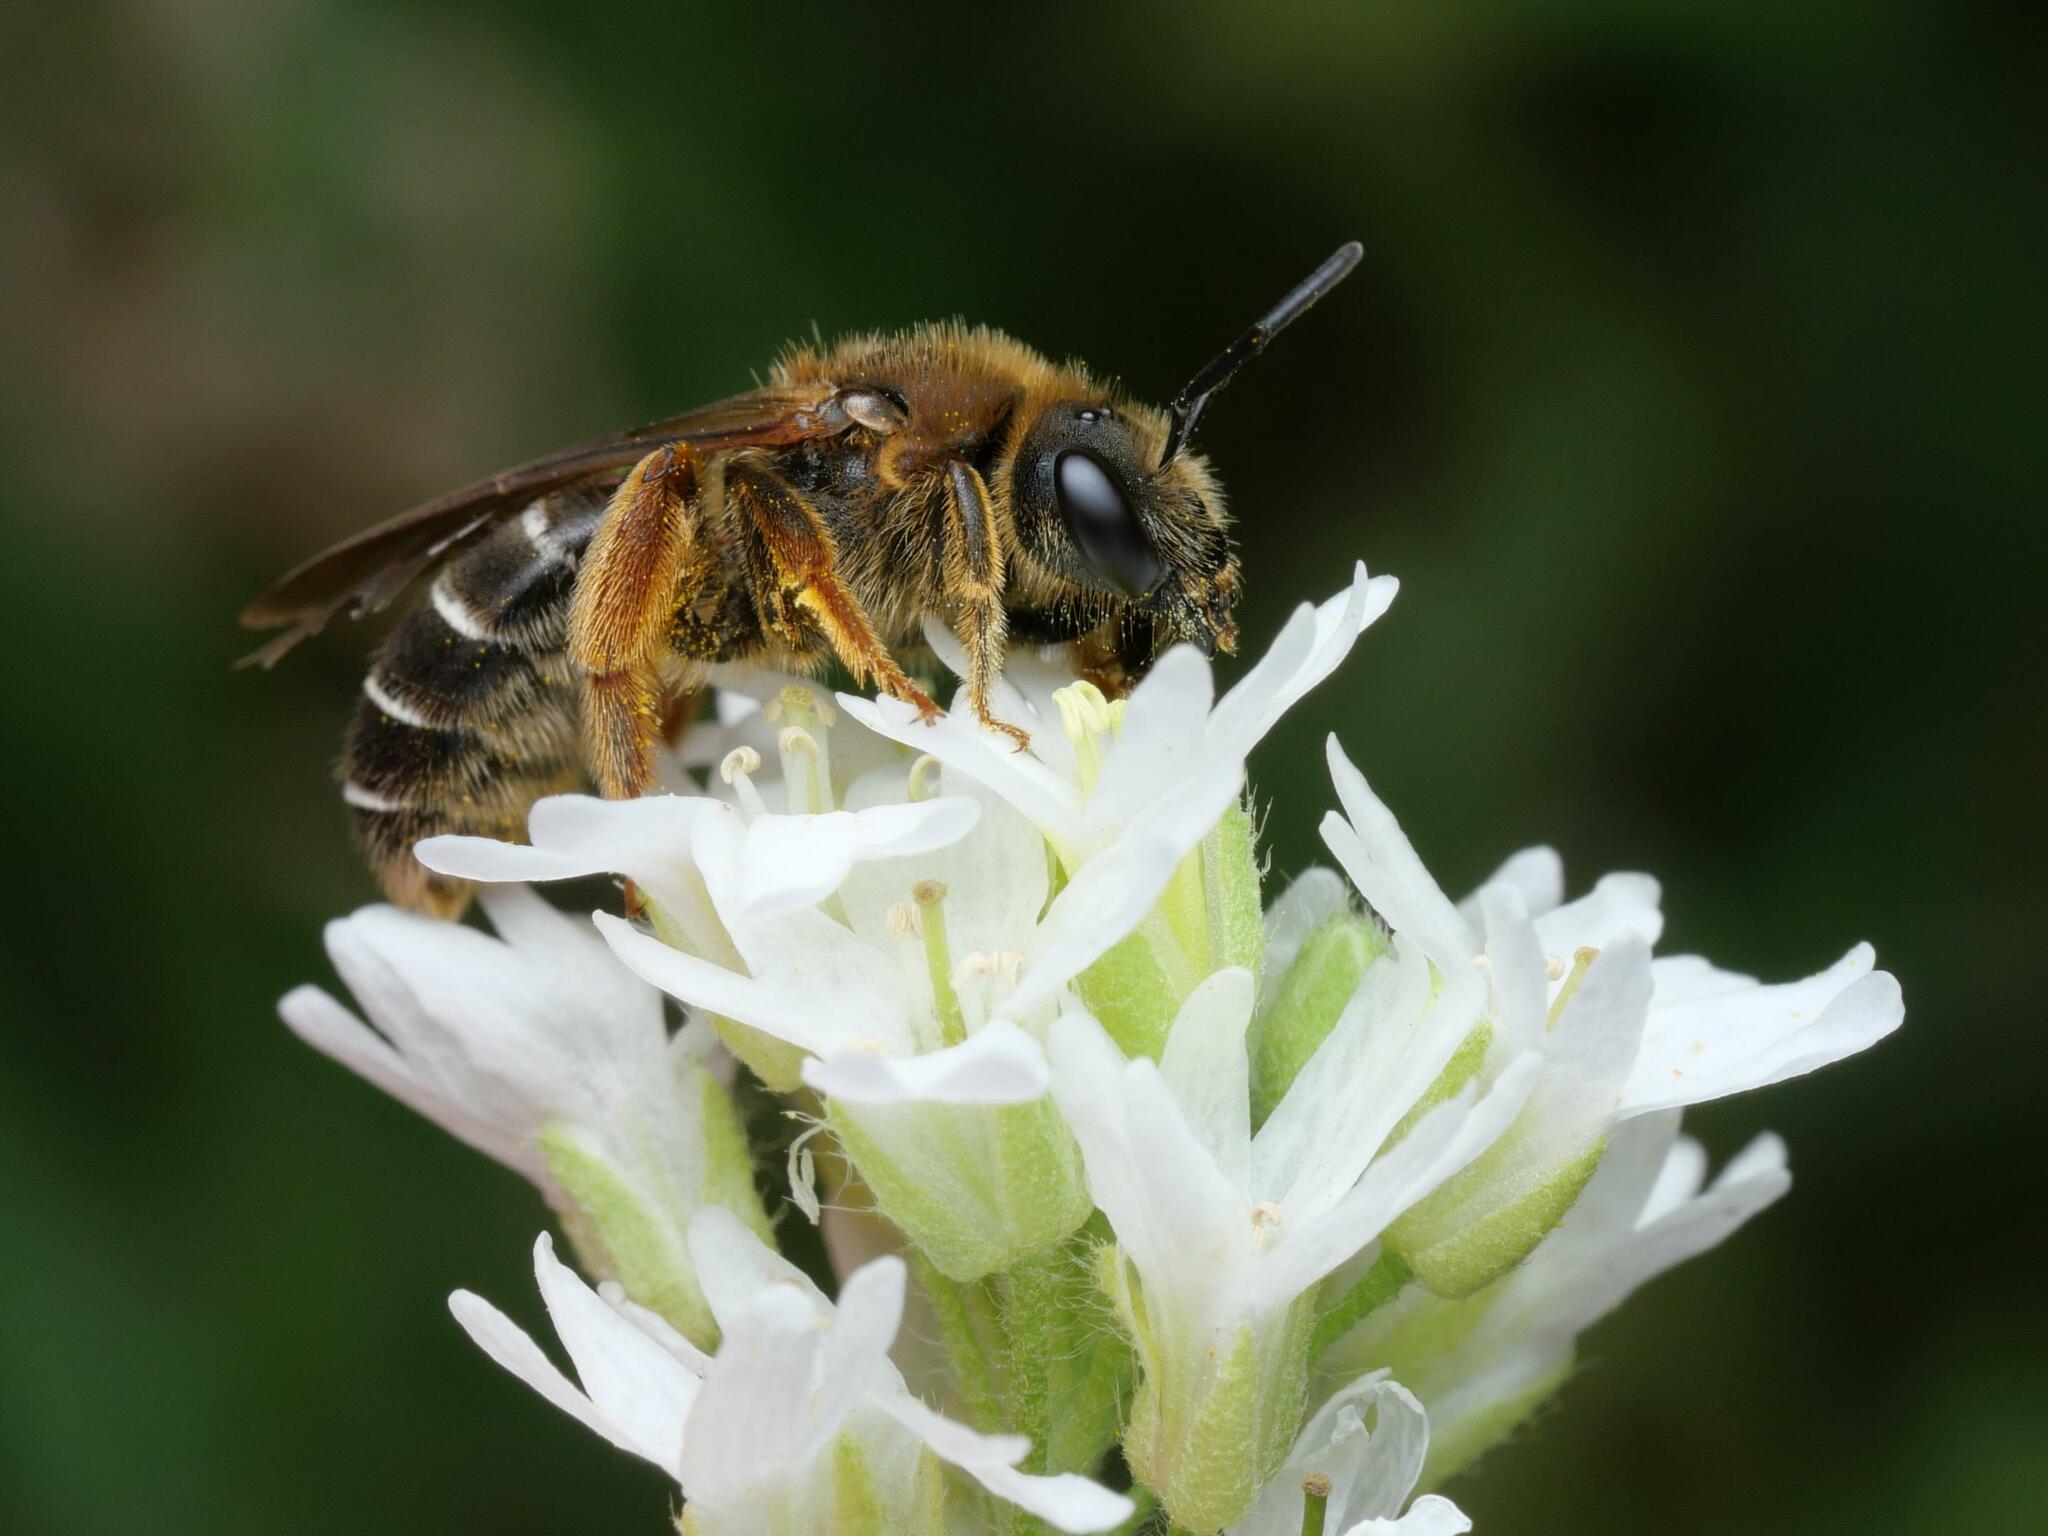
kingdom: Animalia
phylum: Arthropoda
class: Insecta
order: Hymenoptera
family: Halictidae
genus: Halictus
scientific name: Halictus rubicundus
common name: Orange-legged furrow bee
